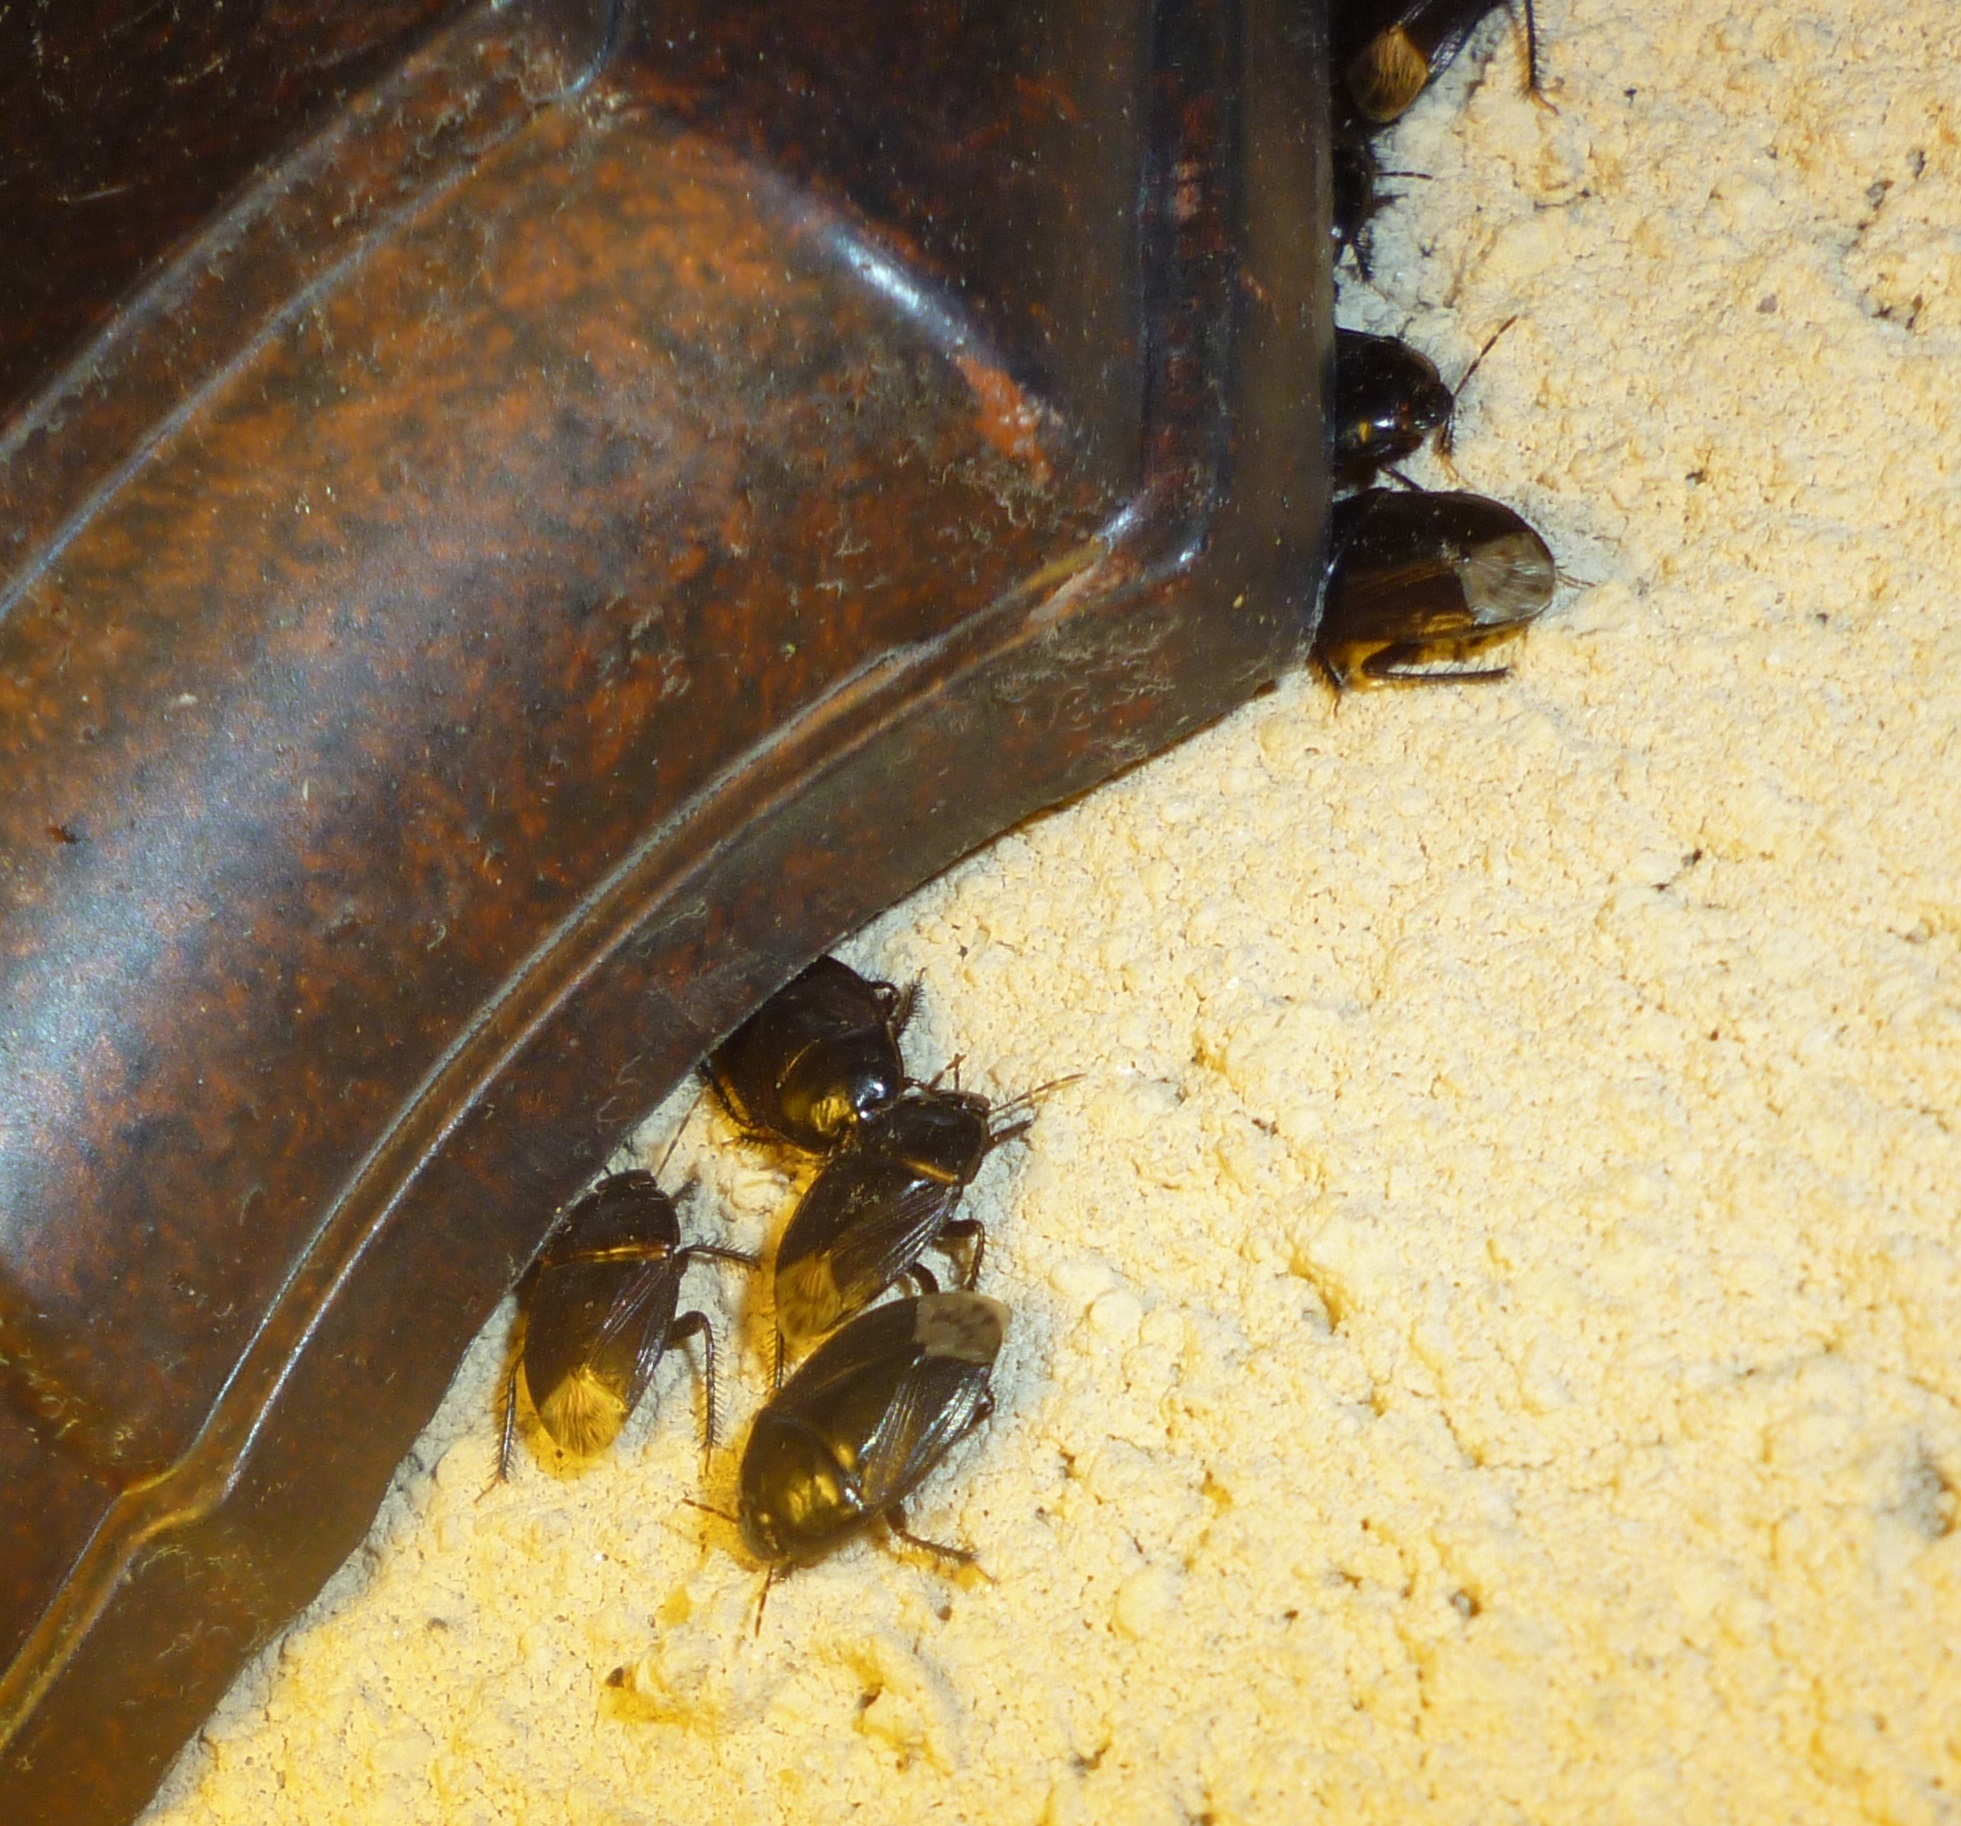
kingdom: Animalia
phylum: Arthropoda
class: Insecta
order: Hemiptera
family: Cydnidae
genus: Macroscytus
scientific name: Macroscytus brunneus
